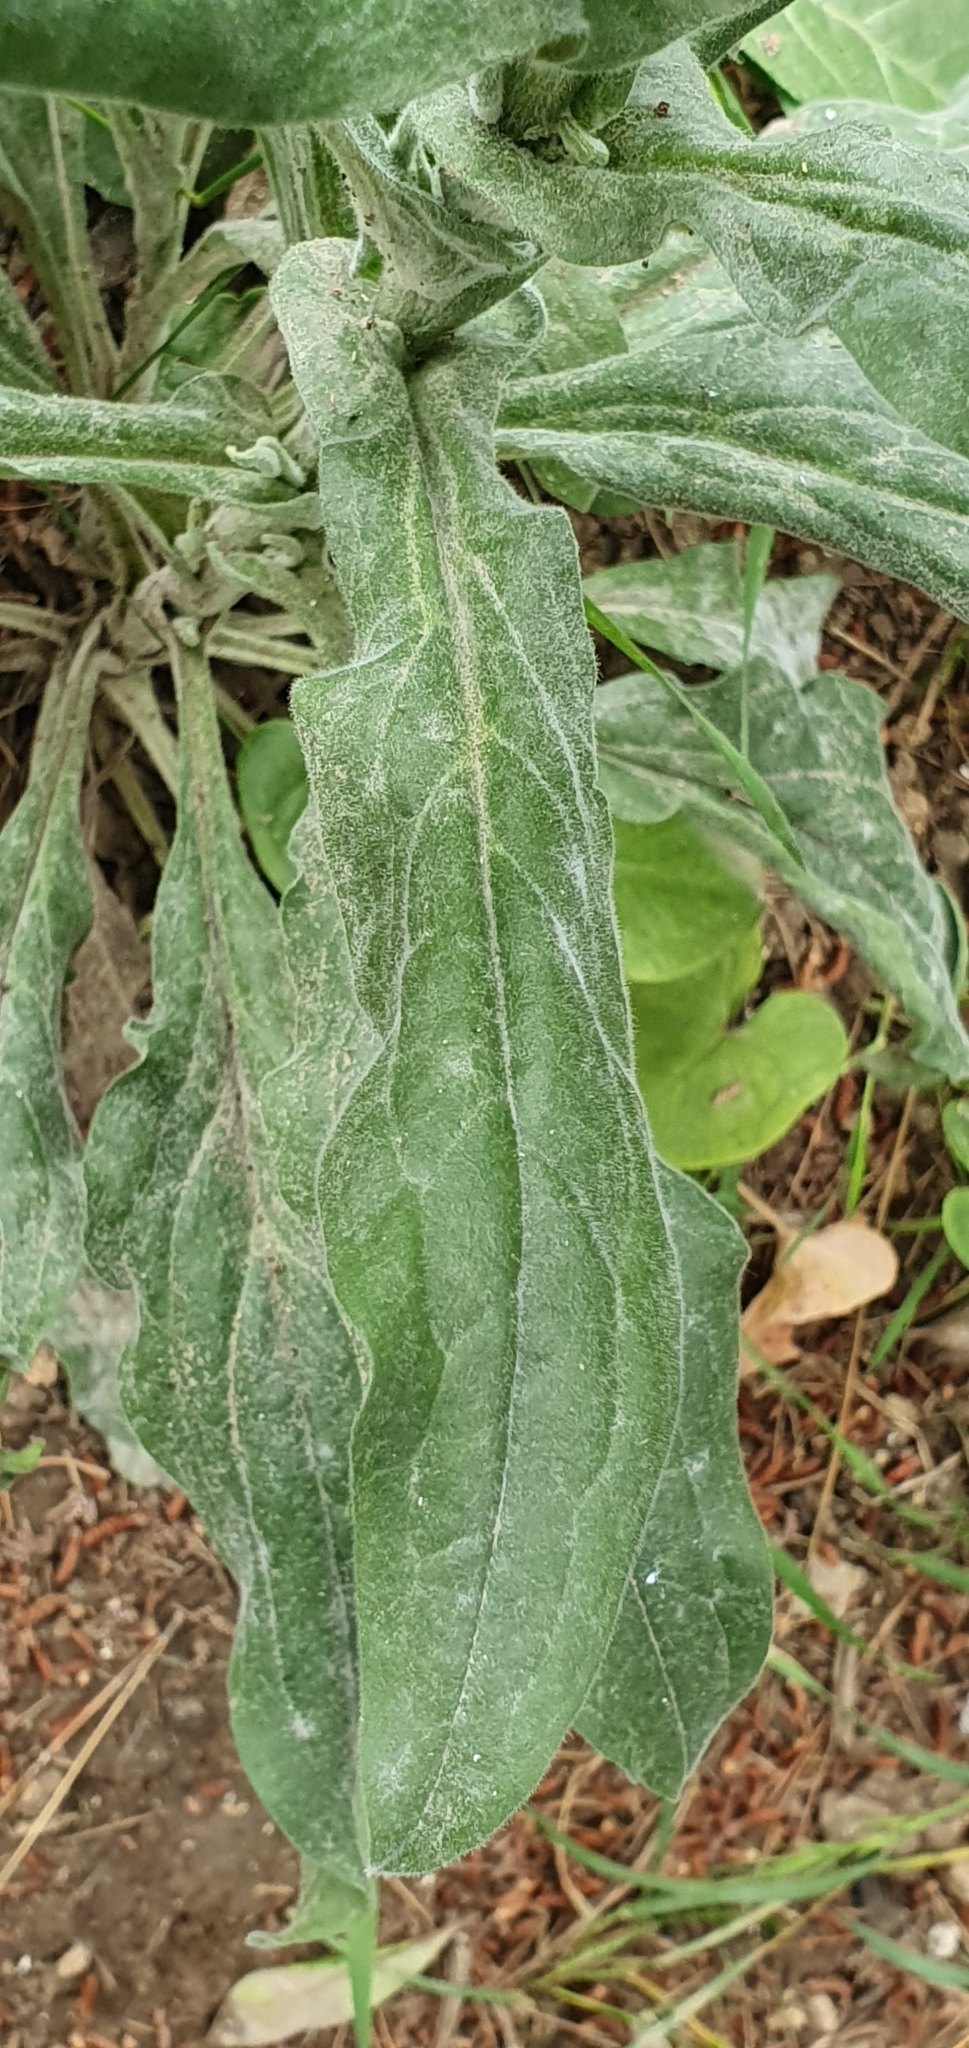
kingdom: Plantae
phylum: Tracheophyta
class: Magnoliopsida
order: Boraginales
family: Boraginaceae
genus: Cynoglossum
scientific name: Cynoglossum creticum
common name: Blue hound's tongue
